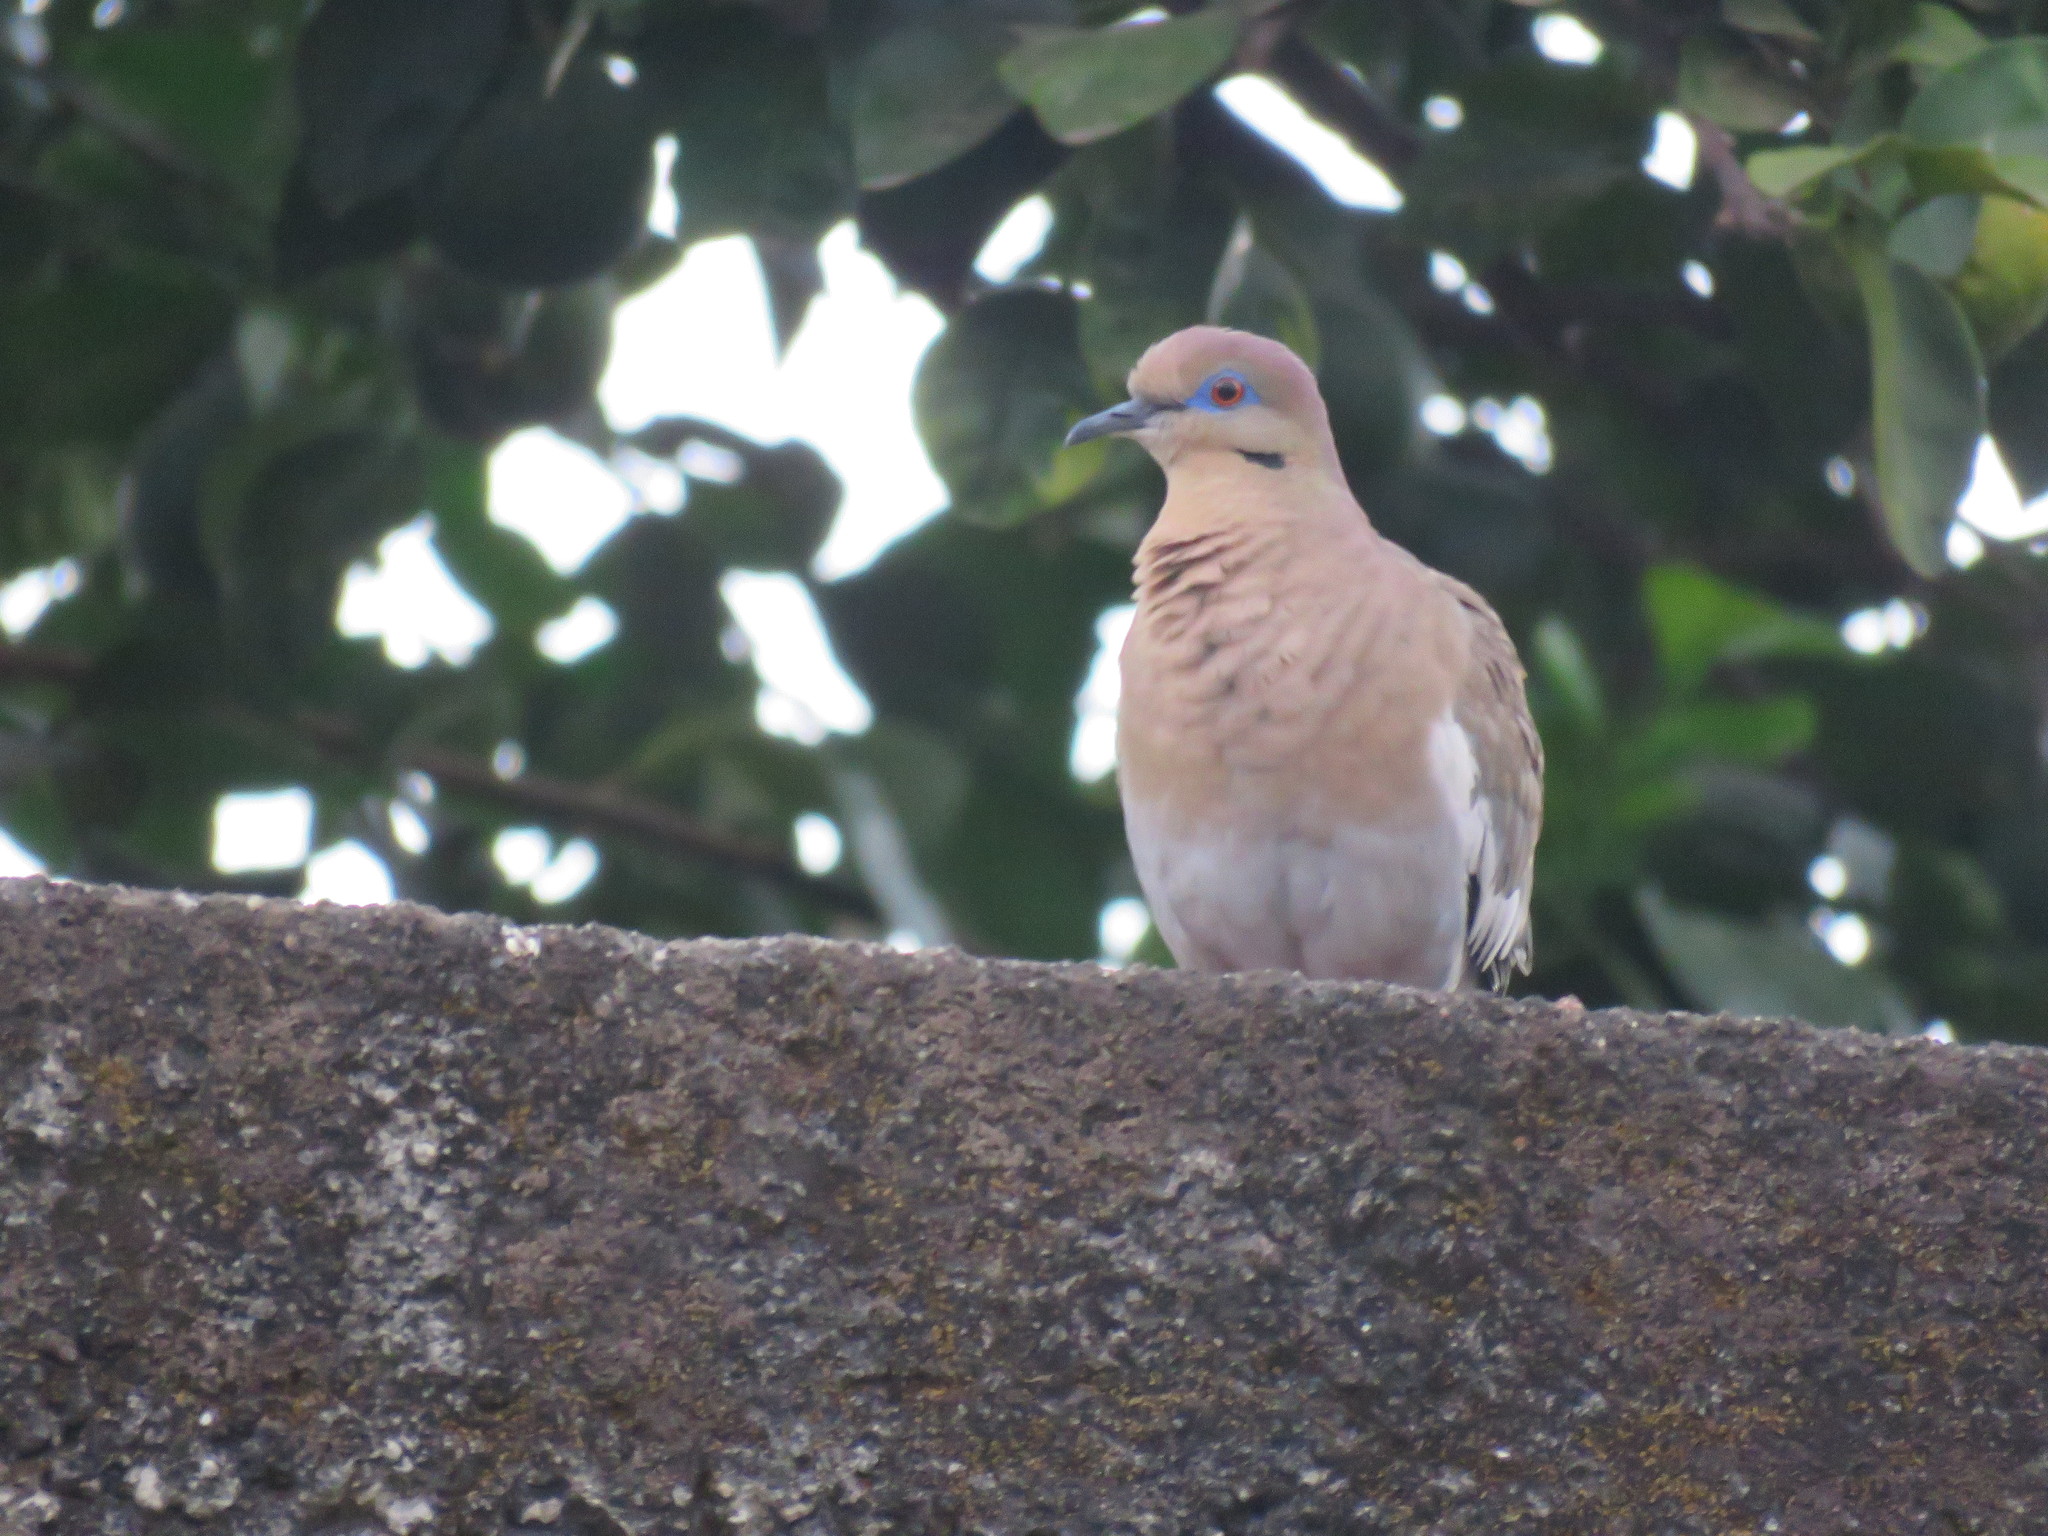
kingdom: Animalia
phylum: Chordata
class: Aves
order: Columbiformes
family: Columbidae
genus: Zenaida
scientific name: Zenaida asiatica
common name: White-winged dove
